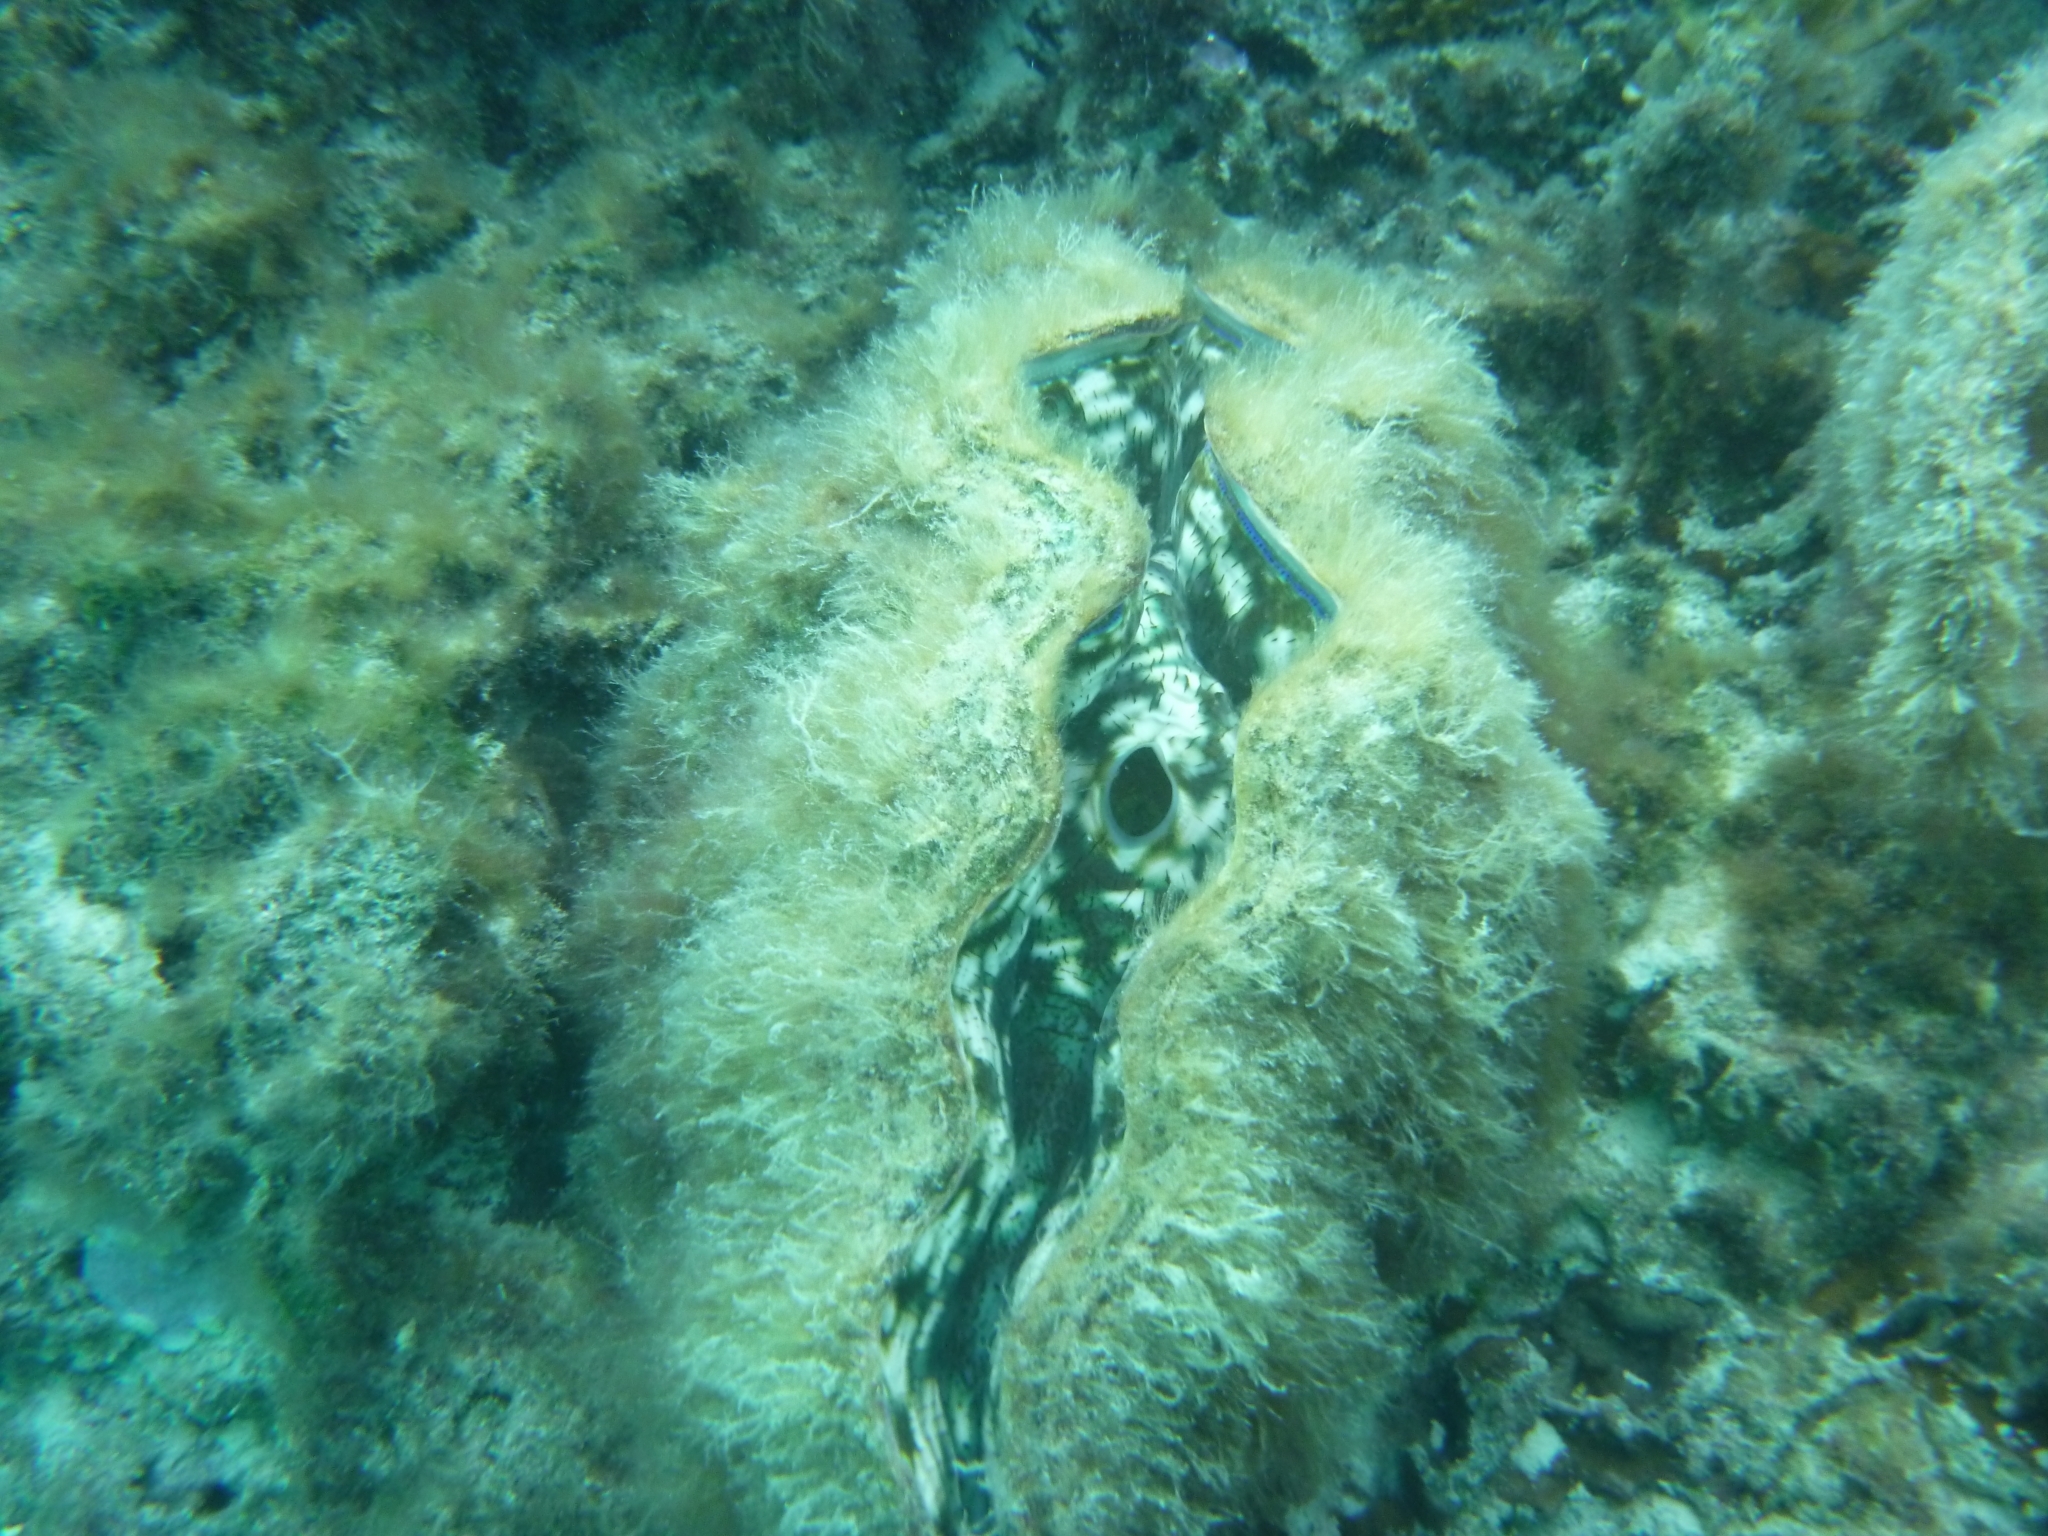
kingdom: Animalia
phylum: Mollusca
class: Bivalvia
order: Cardiida
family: Cardiidae
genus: Tridacna
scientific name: Tridacna derasa
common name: Southern giant clam
